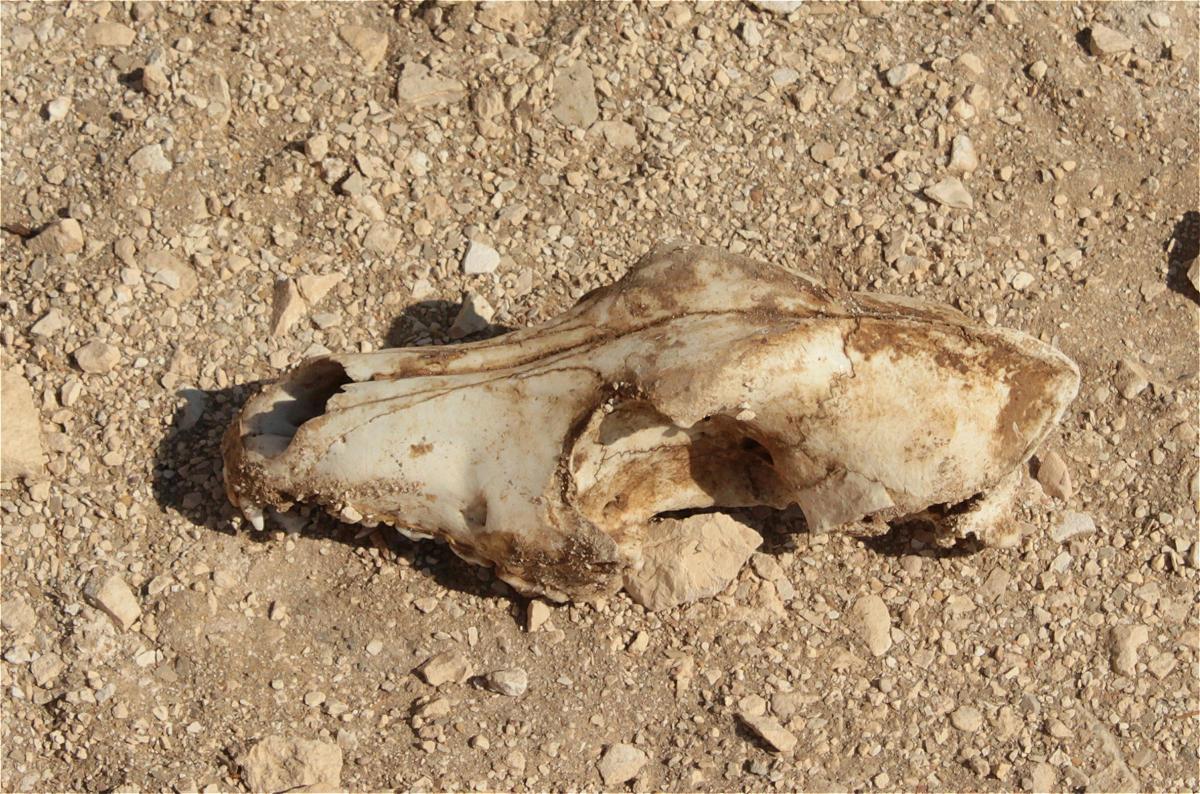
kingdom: Animalia
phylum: Chordata
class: Mammalia
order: Carnivora
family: Canidae
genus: Canis
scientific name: Canis lupus
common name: Gray wolf
